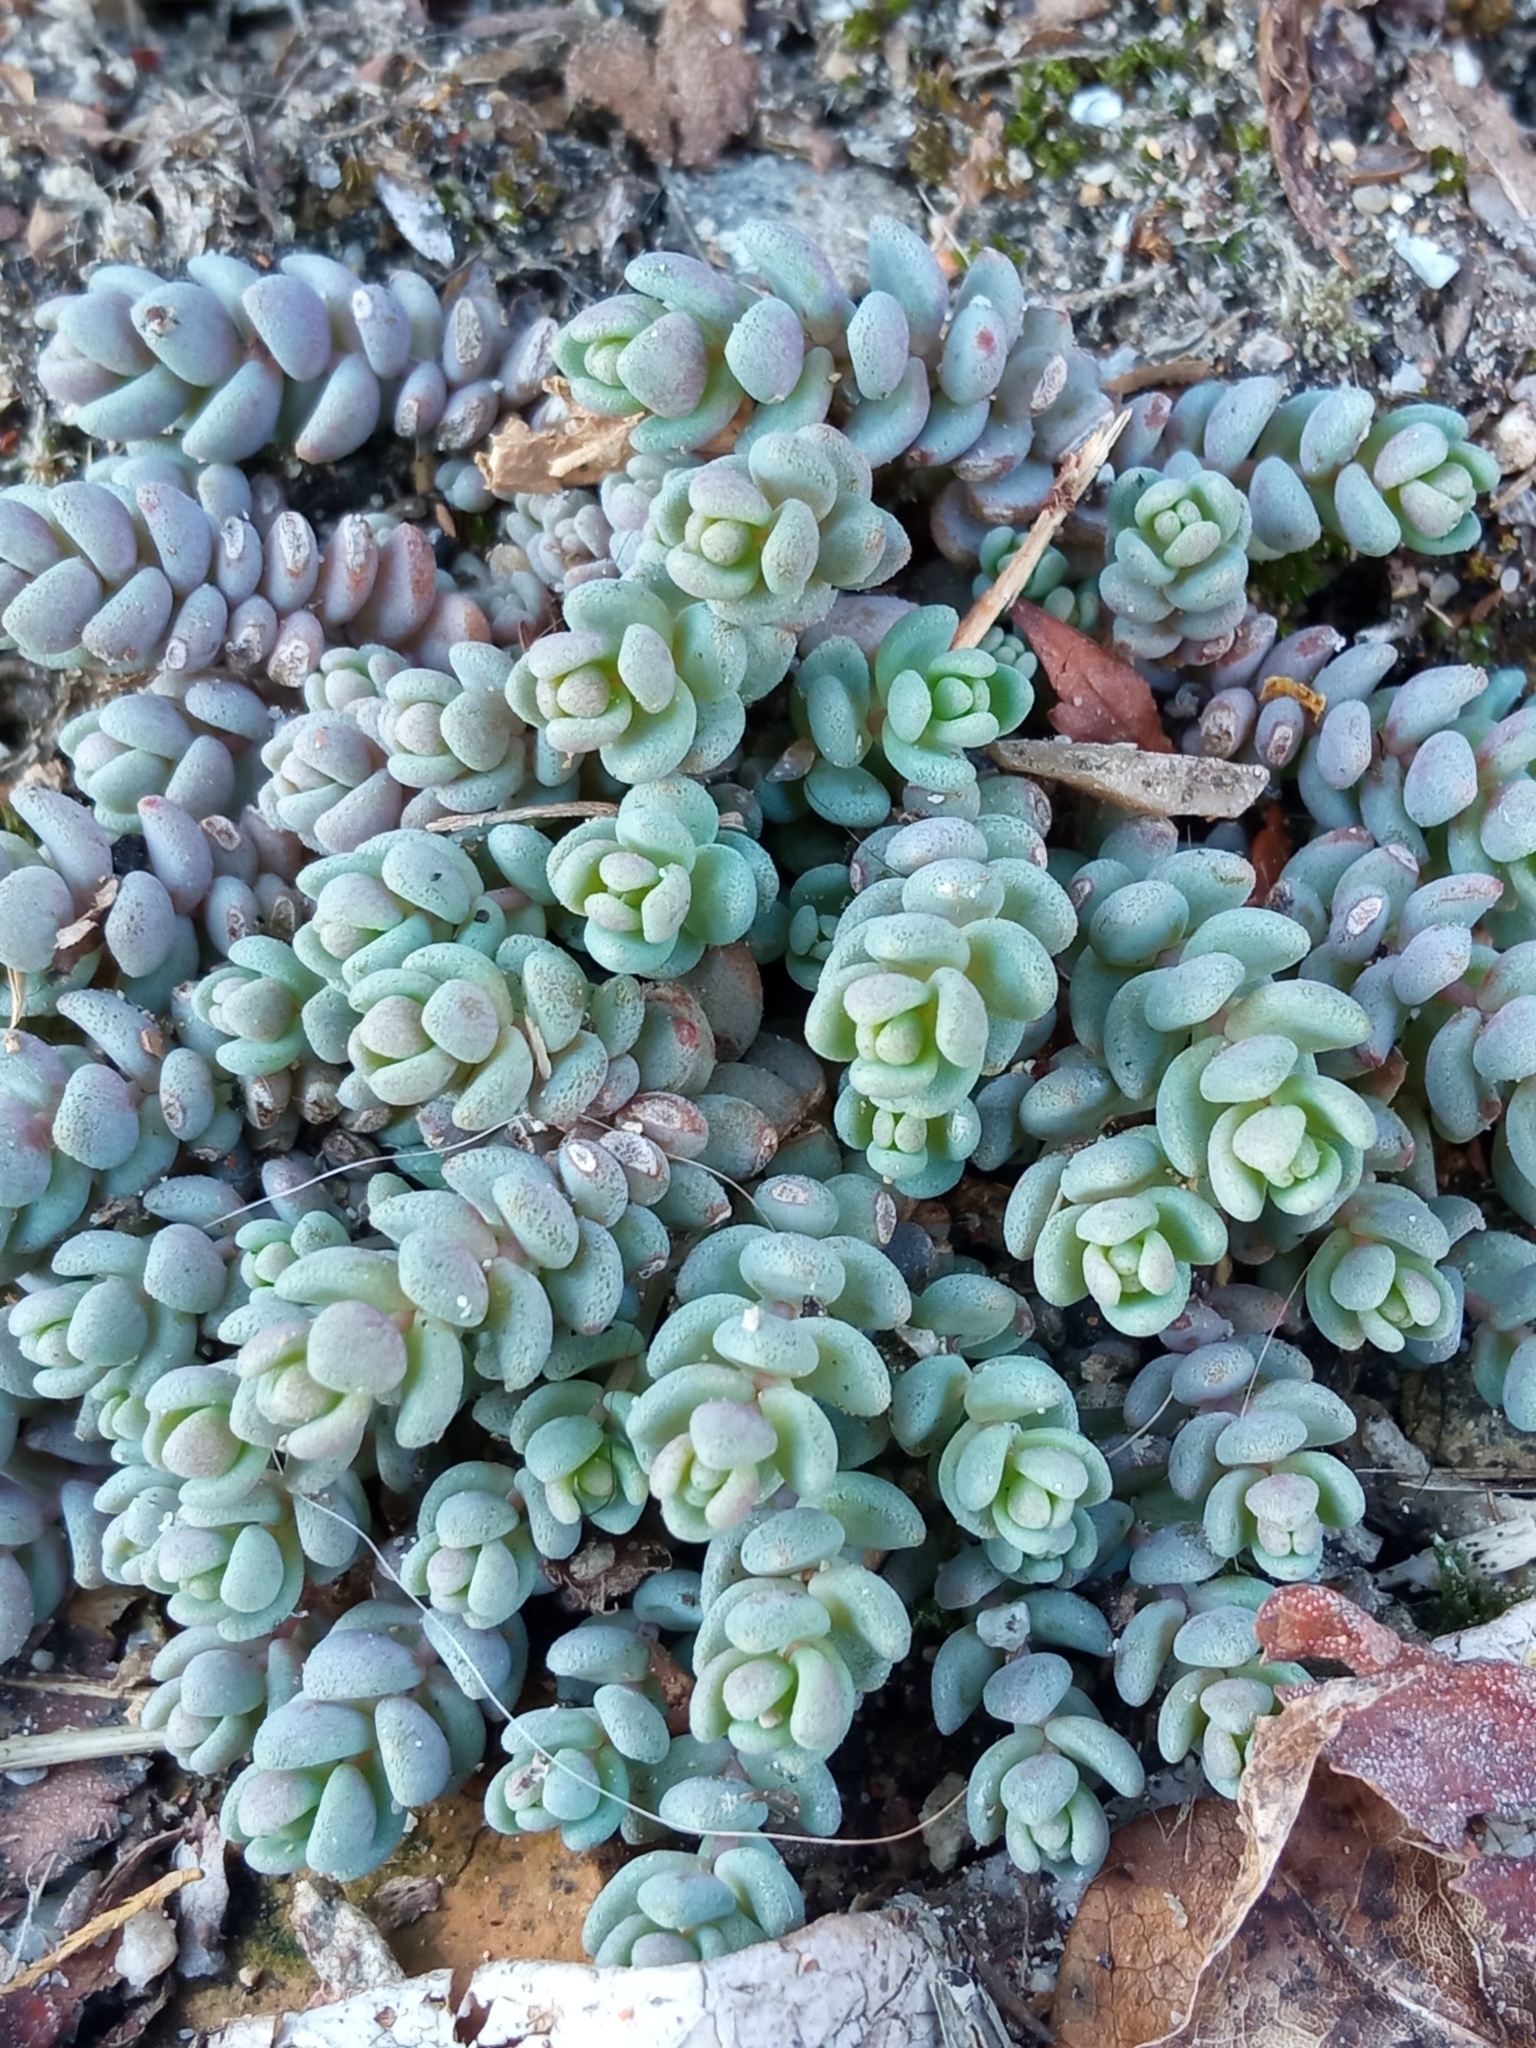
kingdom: Plantae
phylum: Tracheophyta
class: Magnoliopsida
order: Saxifragales
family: Crassulaceae
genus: Sedum
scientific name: Sedum dasyphyllum
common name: Thick-leaf stonecrop
